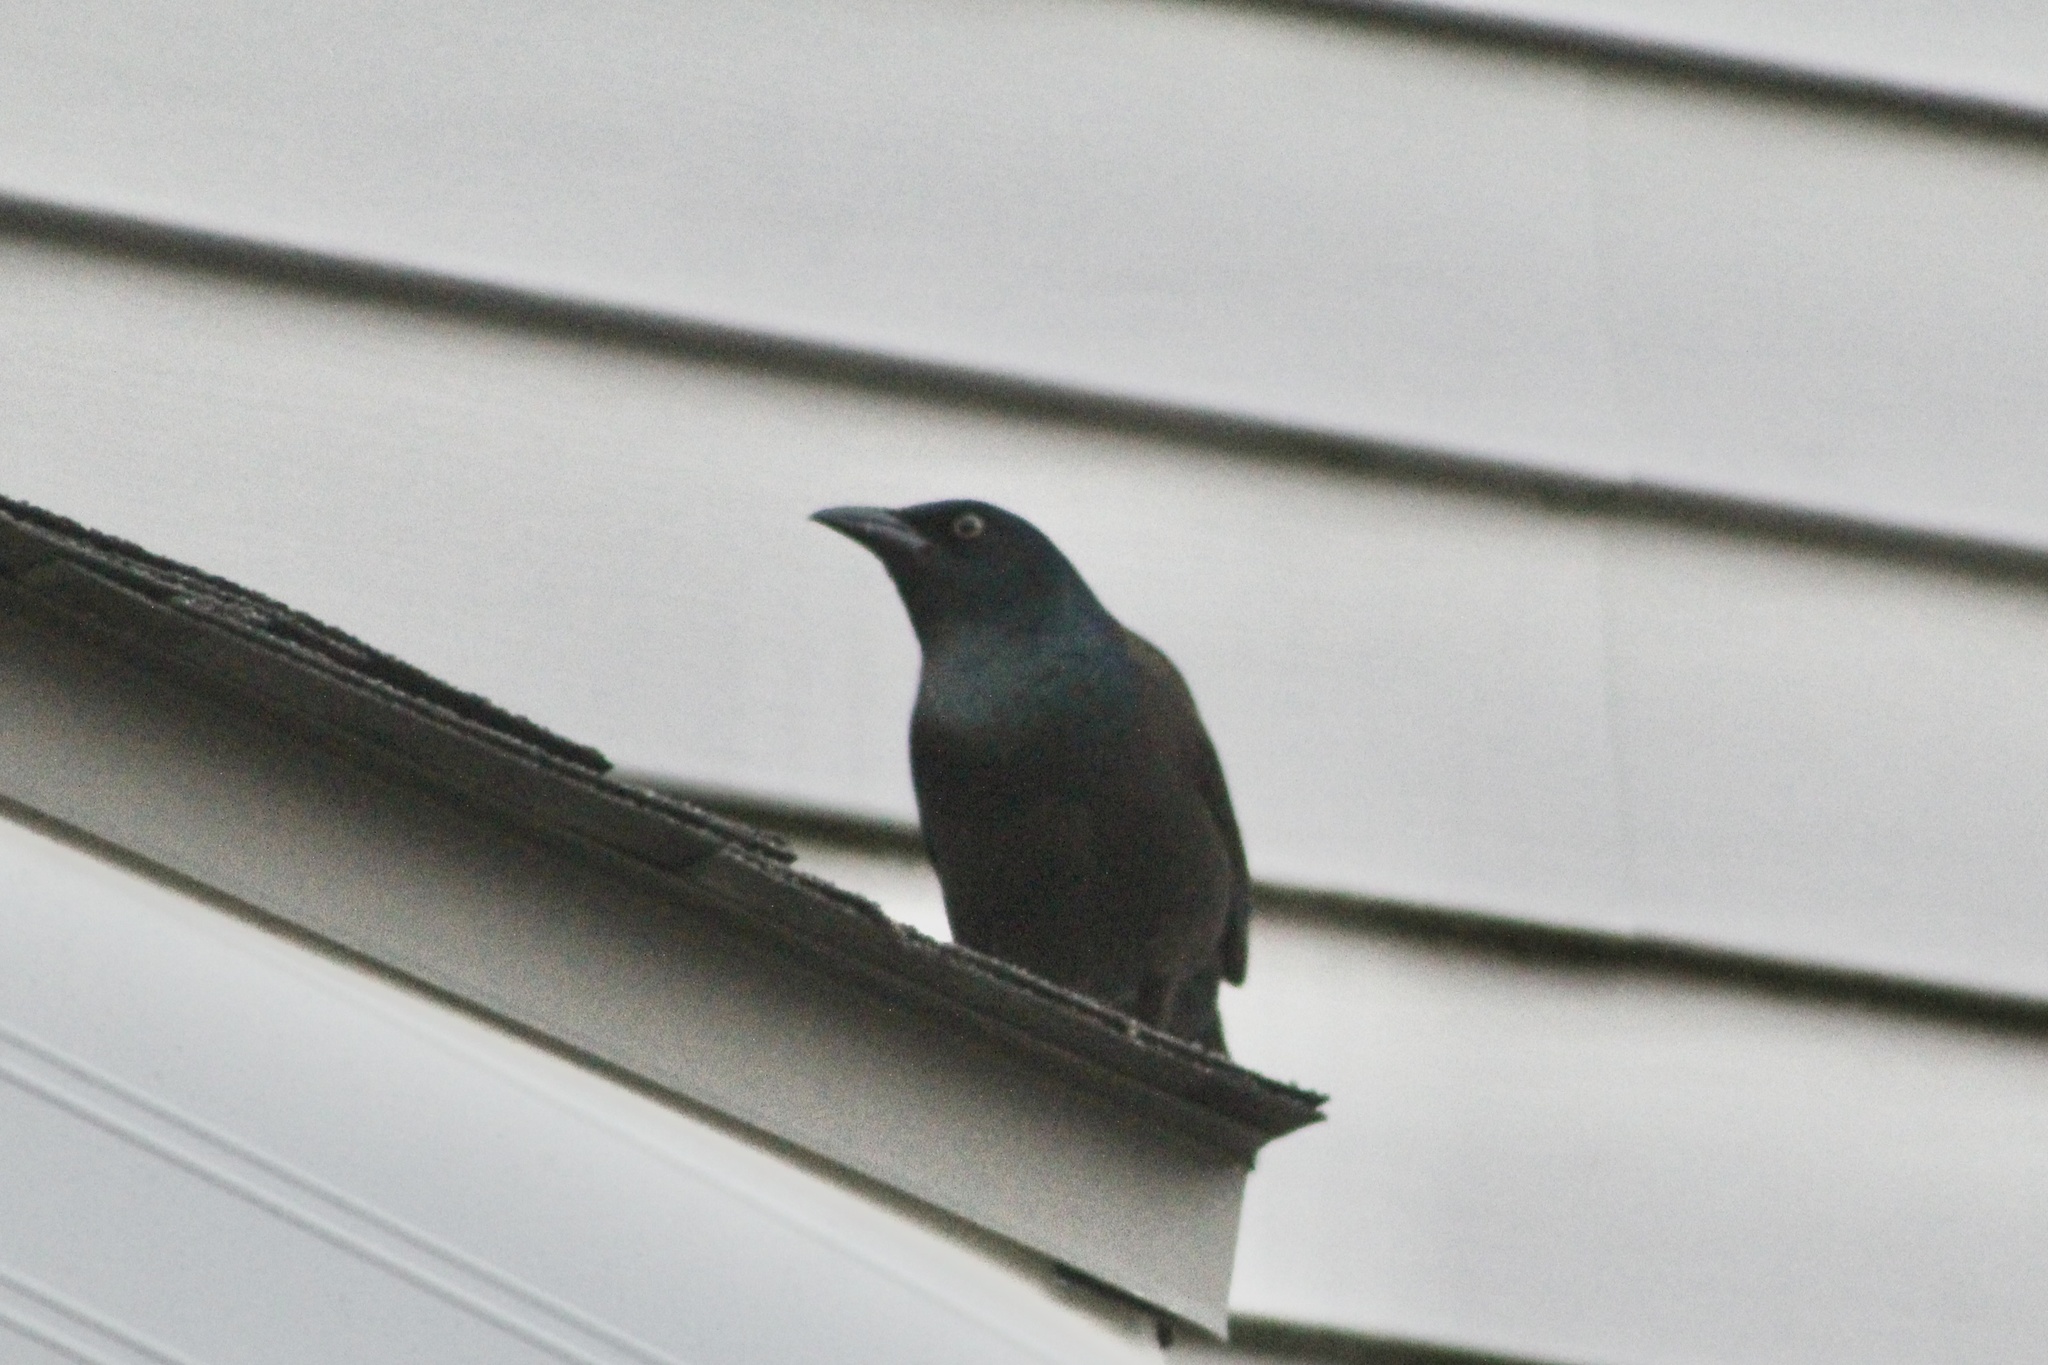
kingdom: Animalia
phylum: Chordata
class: Aves
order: Passeriformes
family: Icteridae
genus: Quiscalus
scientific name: Quiscalus quiscula
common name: Common grackle
